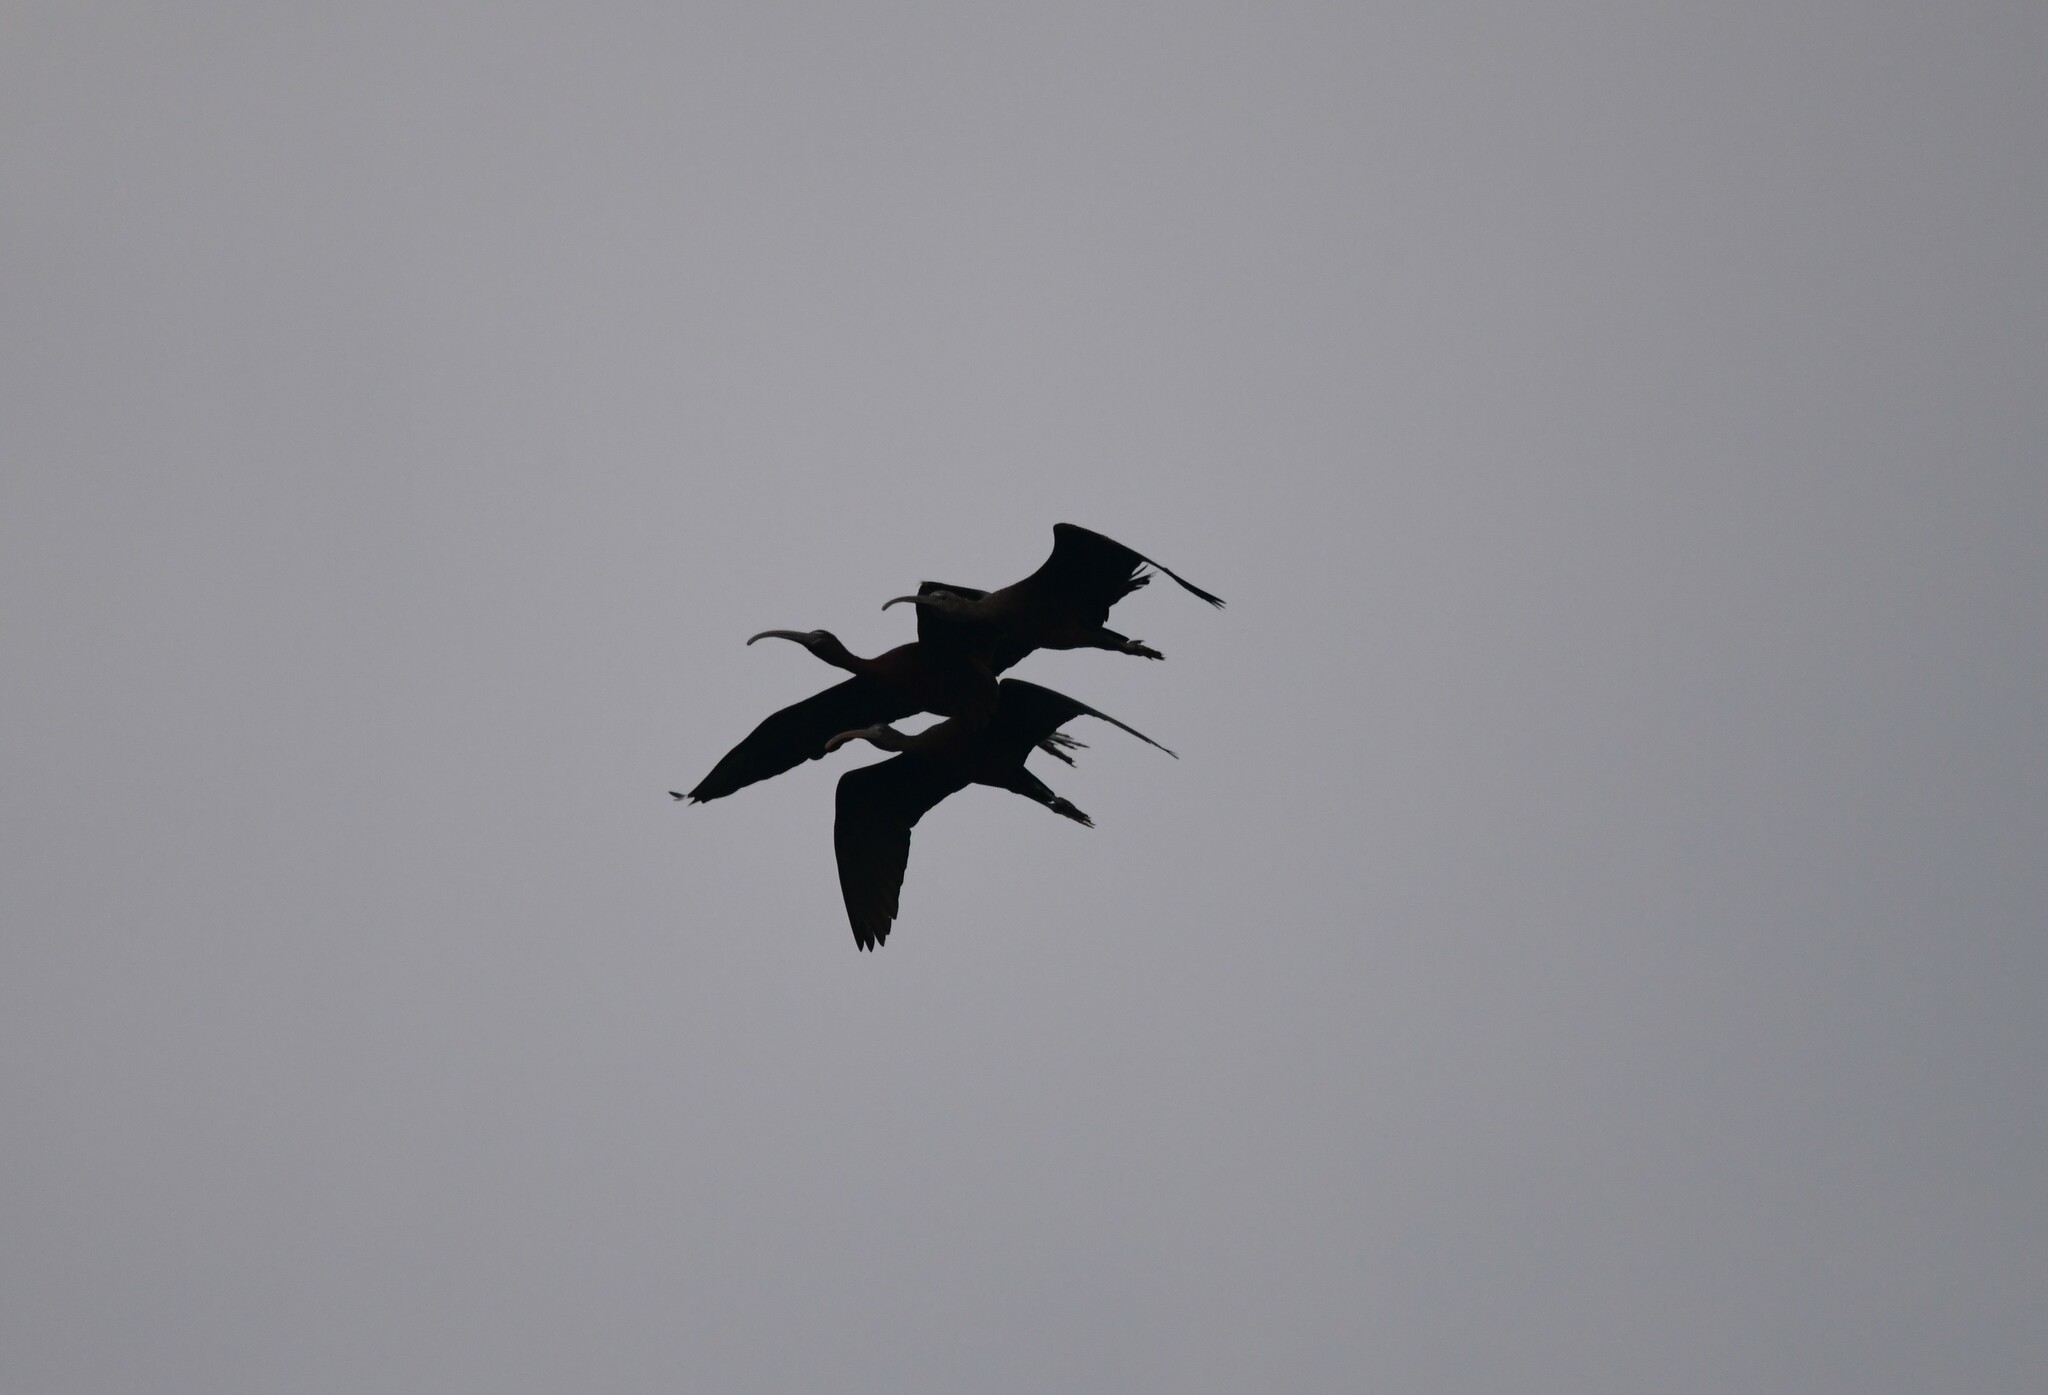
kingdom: Animalia
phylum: Chordata
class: Aves
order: Pelecaniformes
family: Threskiornithidae
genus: Plegadis
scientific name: Plegadis falcinellus
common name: Glossy ibis
